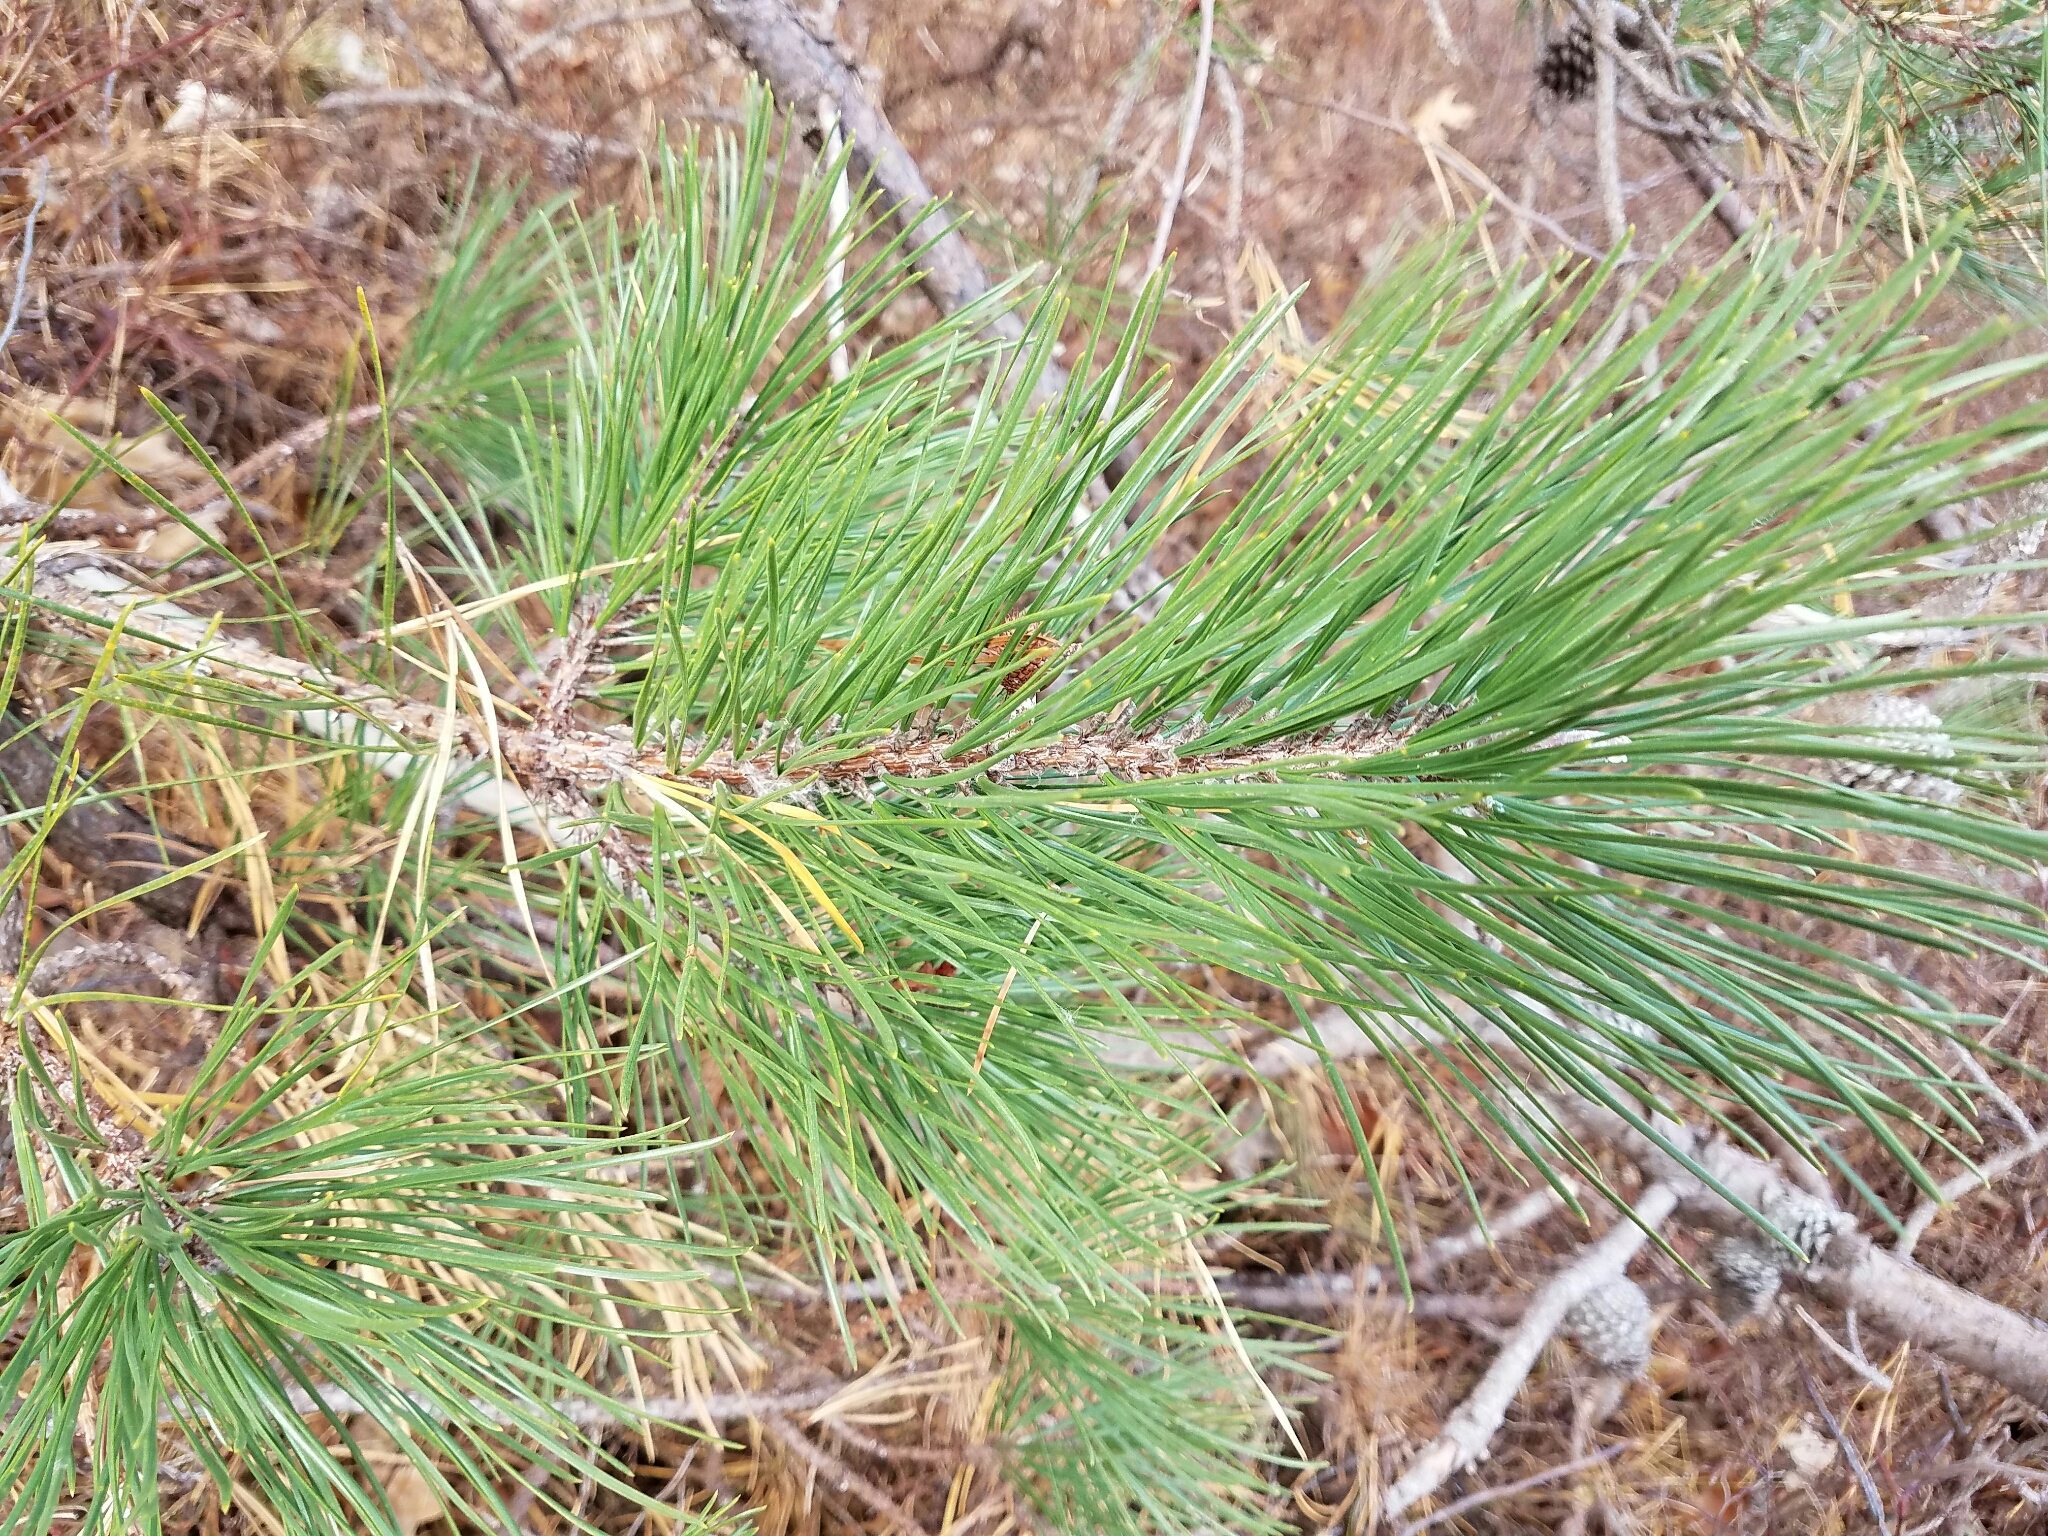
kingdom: Plantae
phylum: Tracheophyta
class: Pinopsida
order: Pinales
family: Pinaceae
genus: Pinus
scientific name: Pinus rigida
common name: Pitch pine
